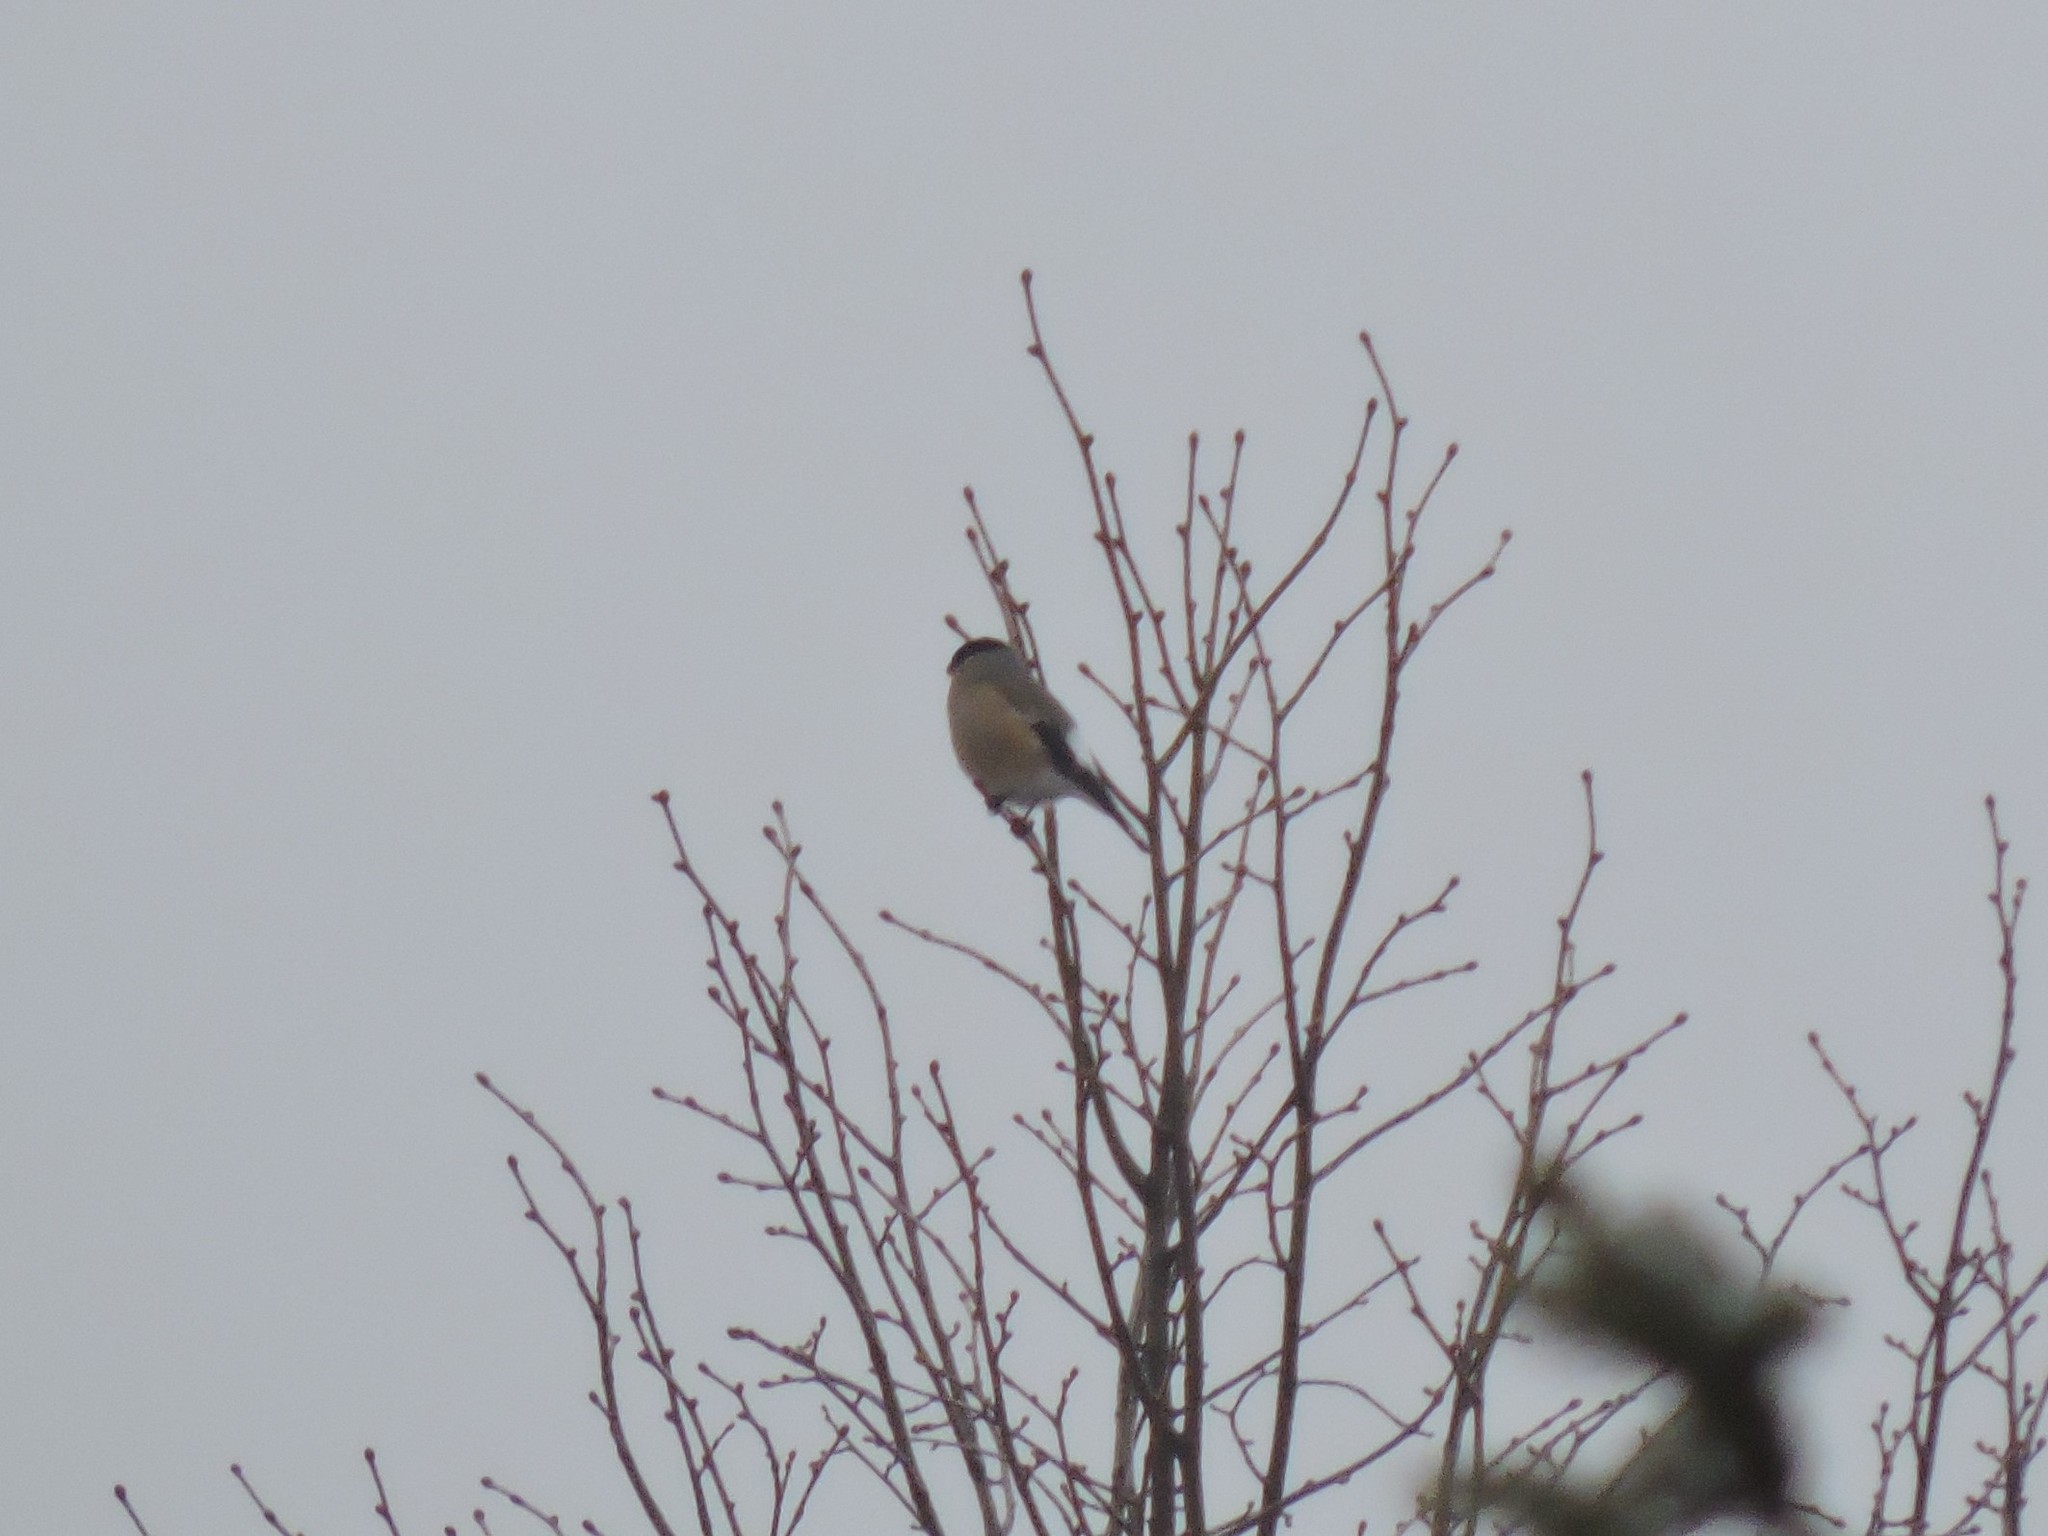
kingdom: Animalia
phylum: Chordata
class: Aves
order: Passeriformes
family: Fringillidae
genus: Pyrrhula
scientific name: Pyrrhula pyrrhula
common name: Eurasian bullfinch
